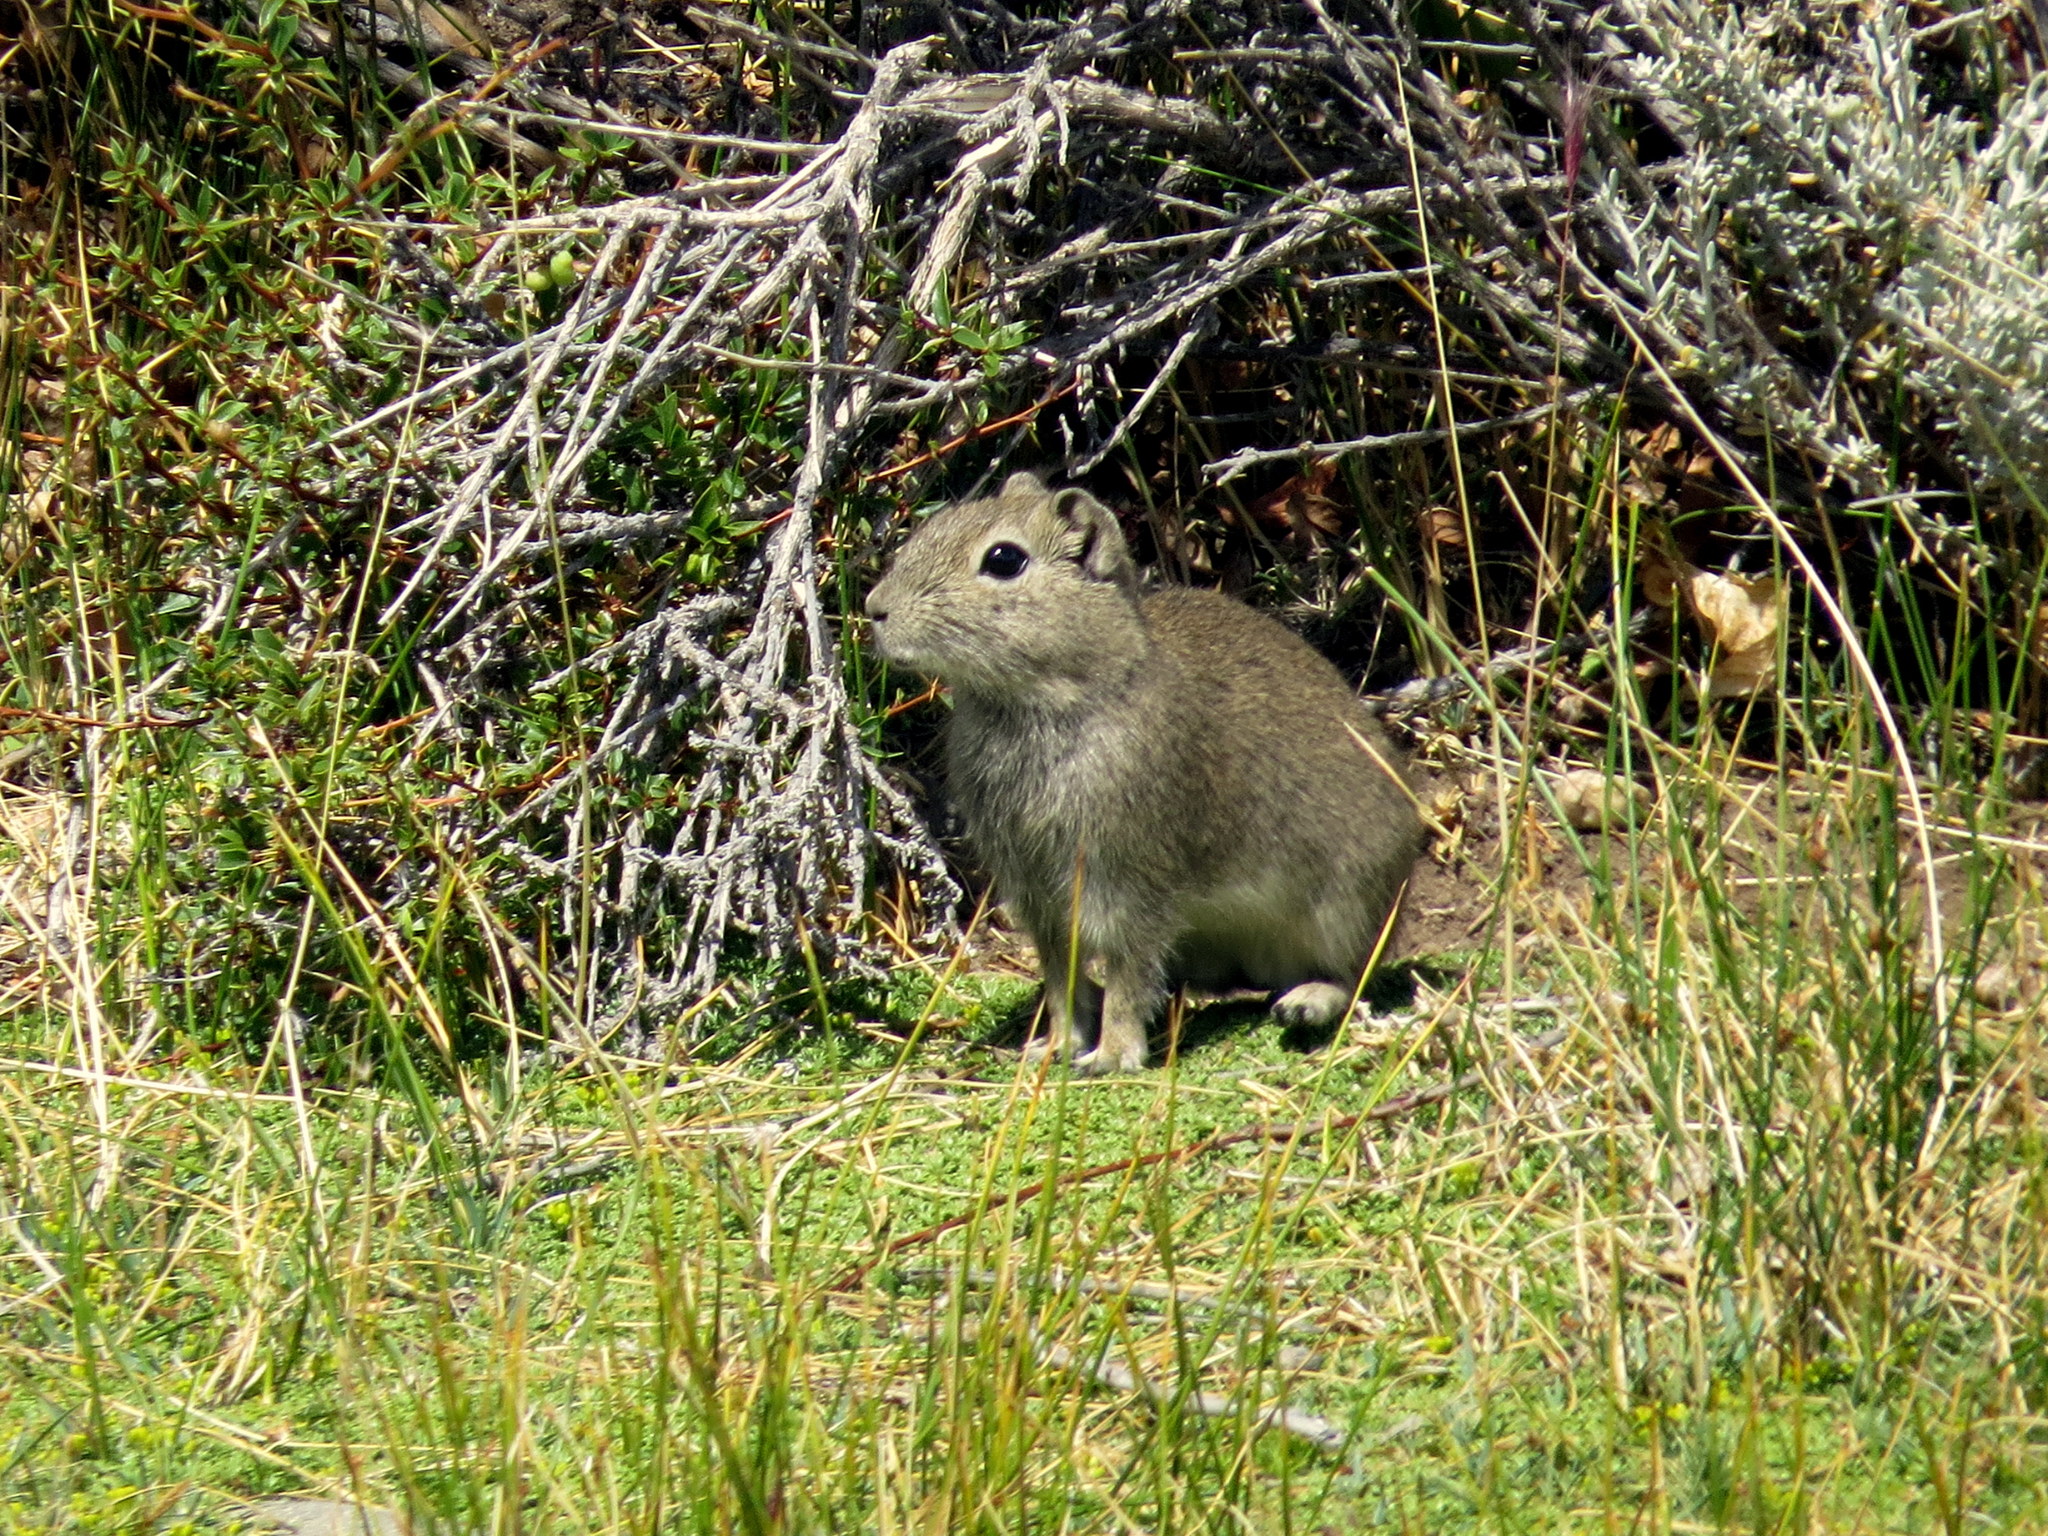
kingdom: Animalia
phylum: Chordata
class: Mammalia
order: Rodentia
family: Caviidae
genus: Microcavia
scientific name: Microcavia australis
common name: Southern mountain cavy
